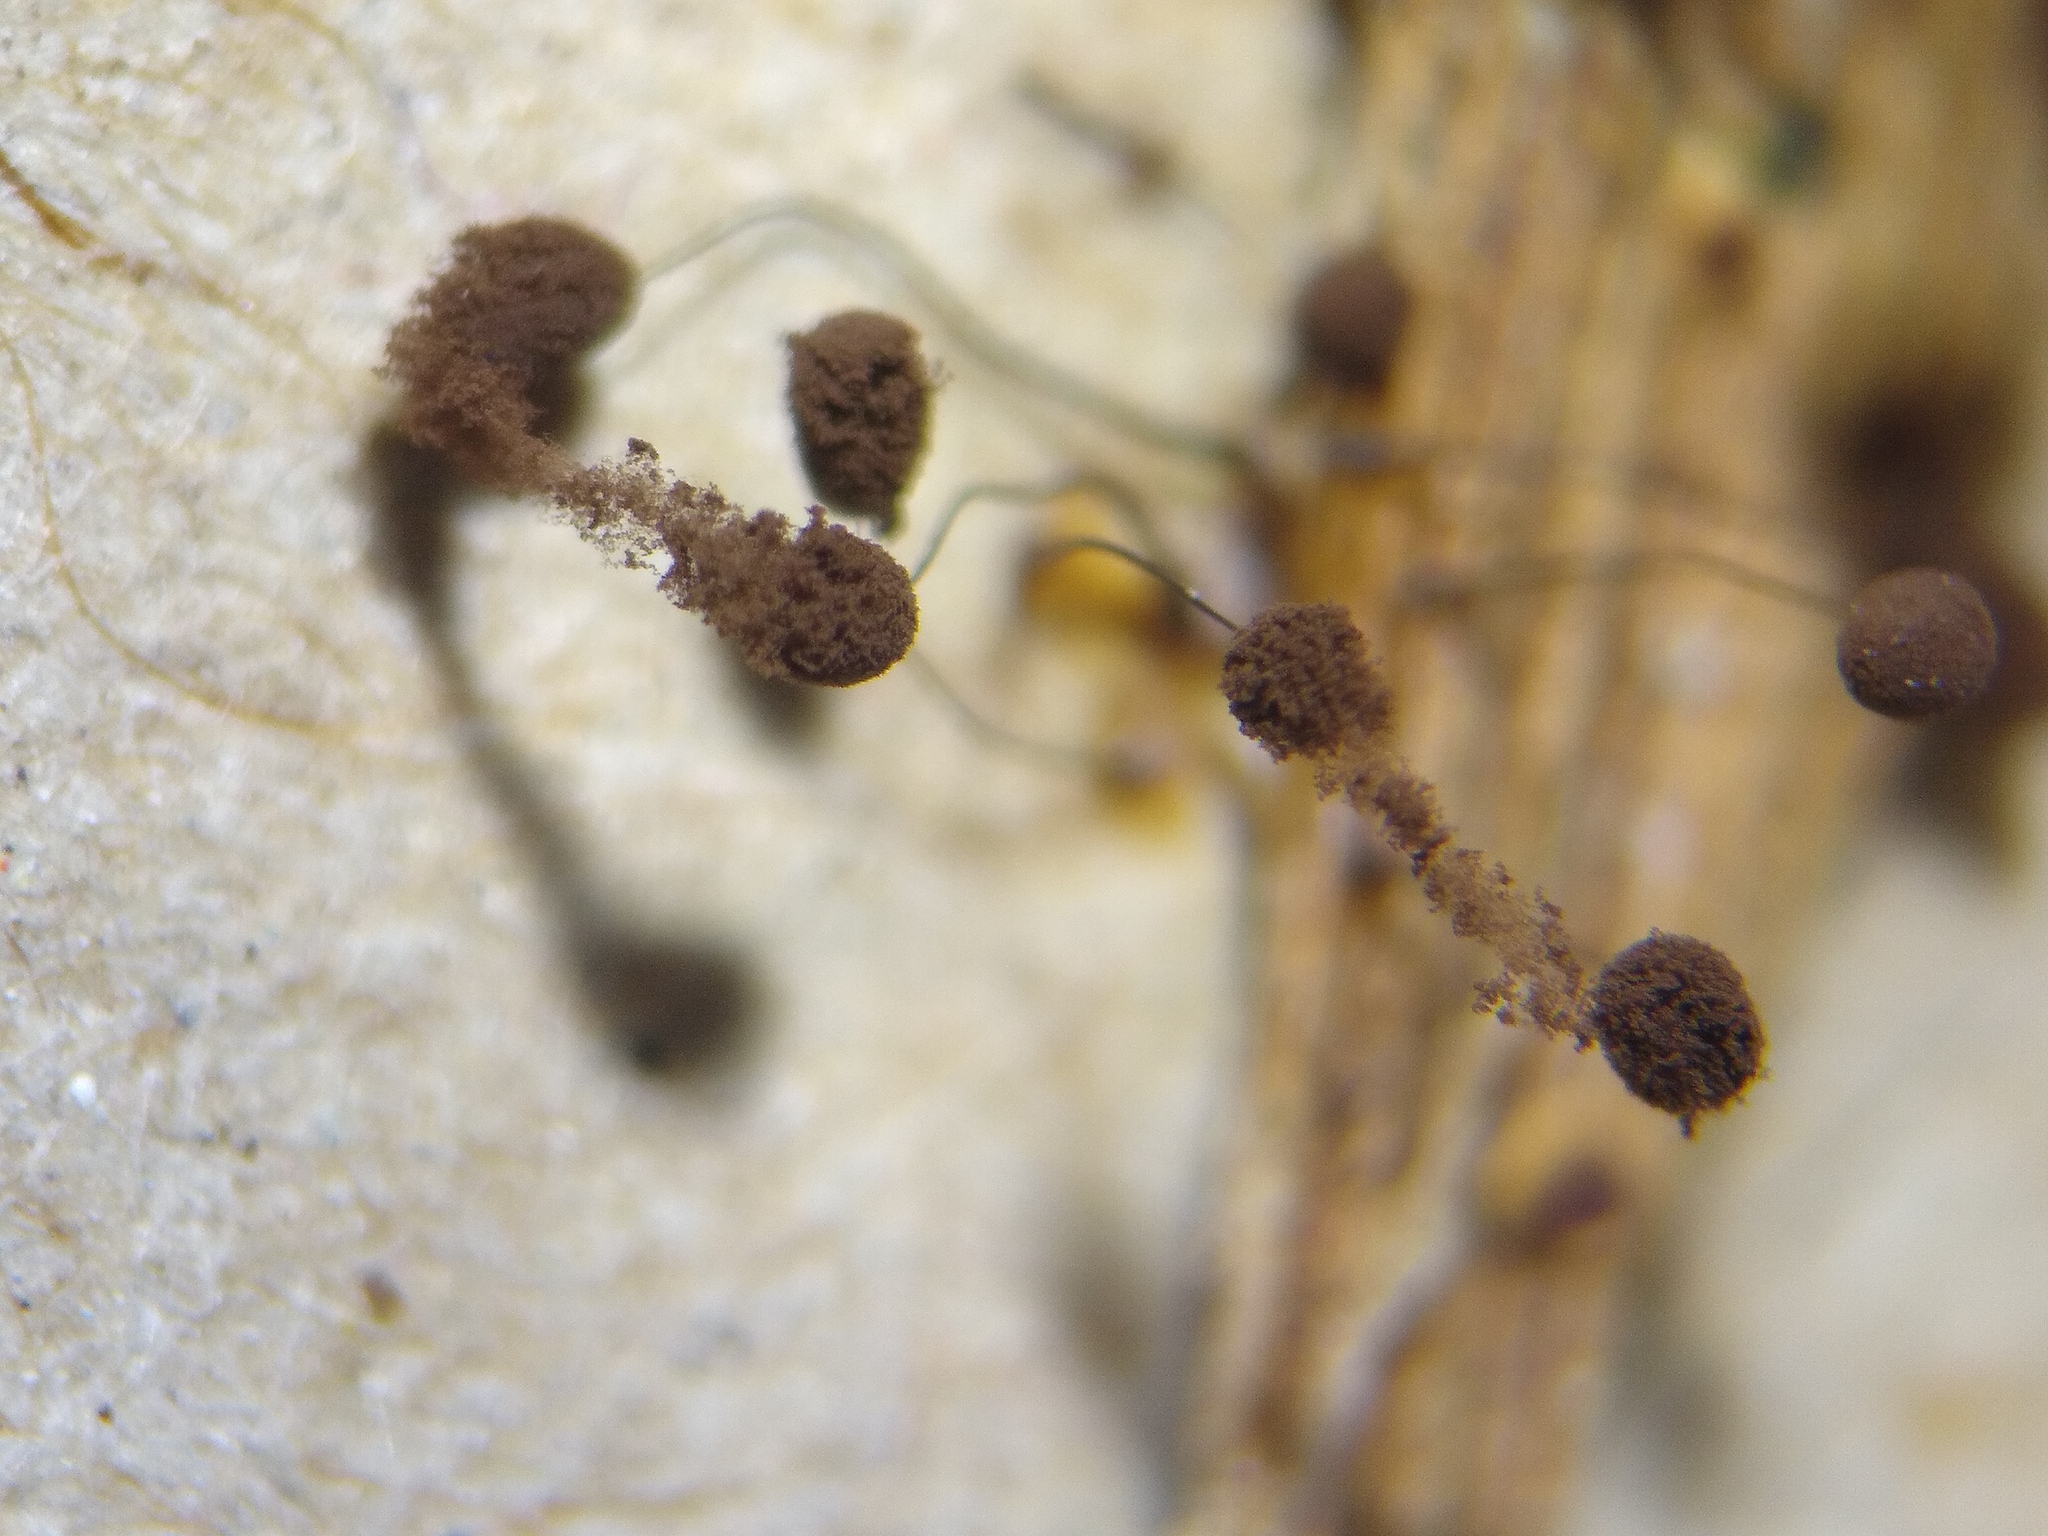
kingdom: Protozoa
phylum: Mycetozoa
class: Myxomycetes
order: Stemonitidales
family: Stemonitidaceae
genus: Comatricha
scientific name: Comatricha alta
